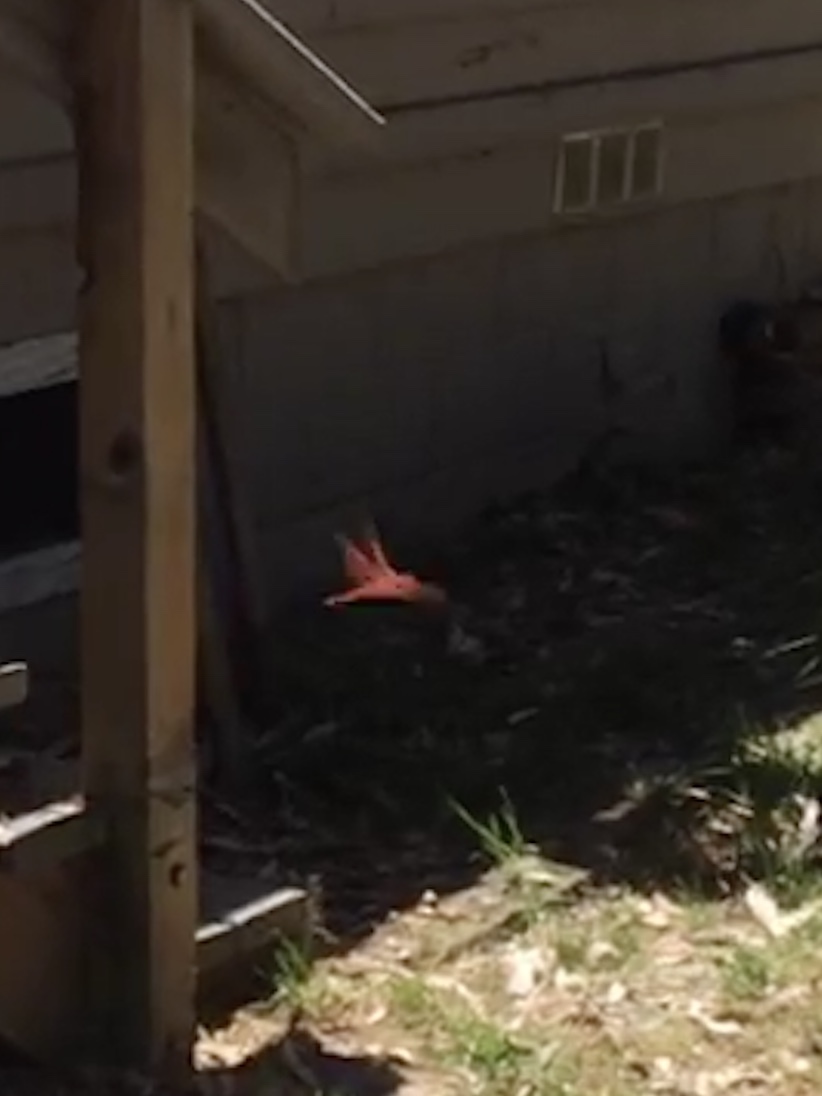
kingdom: Animalia
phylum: Arthropoda
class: Insecta
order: Odonata
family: Libellulidae
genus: Libellula
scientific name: Libellula saturata
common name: Flame skimmer
